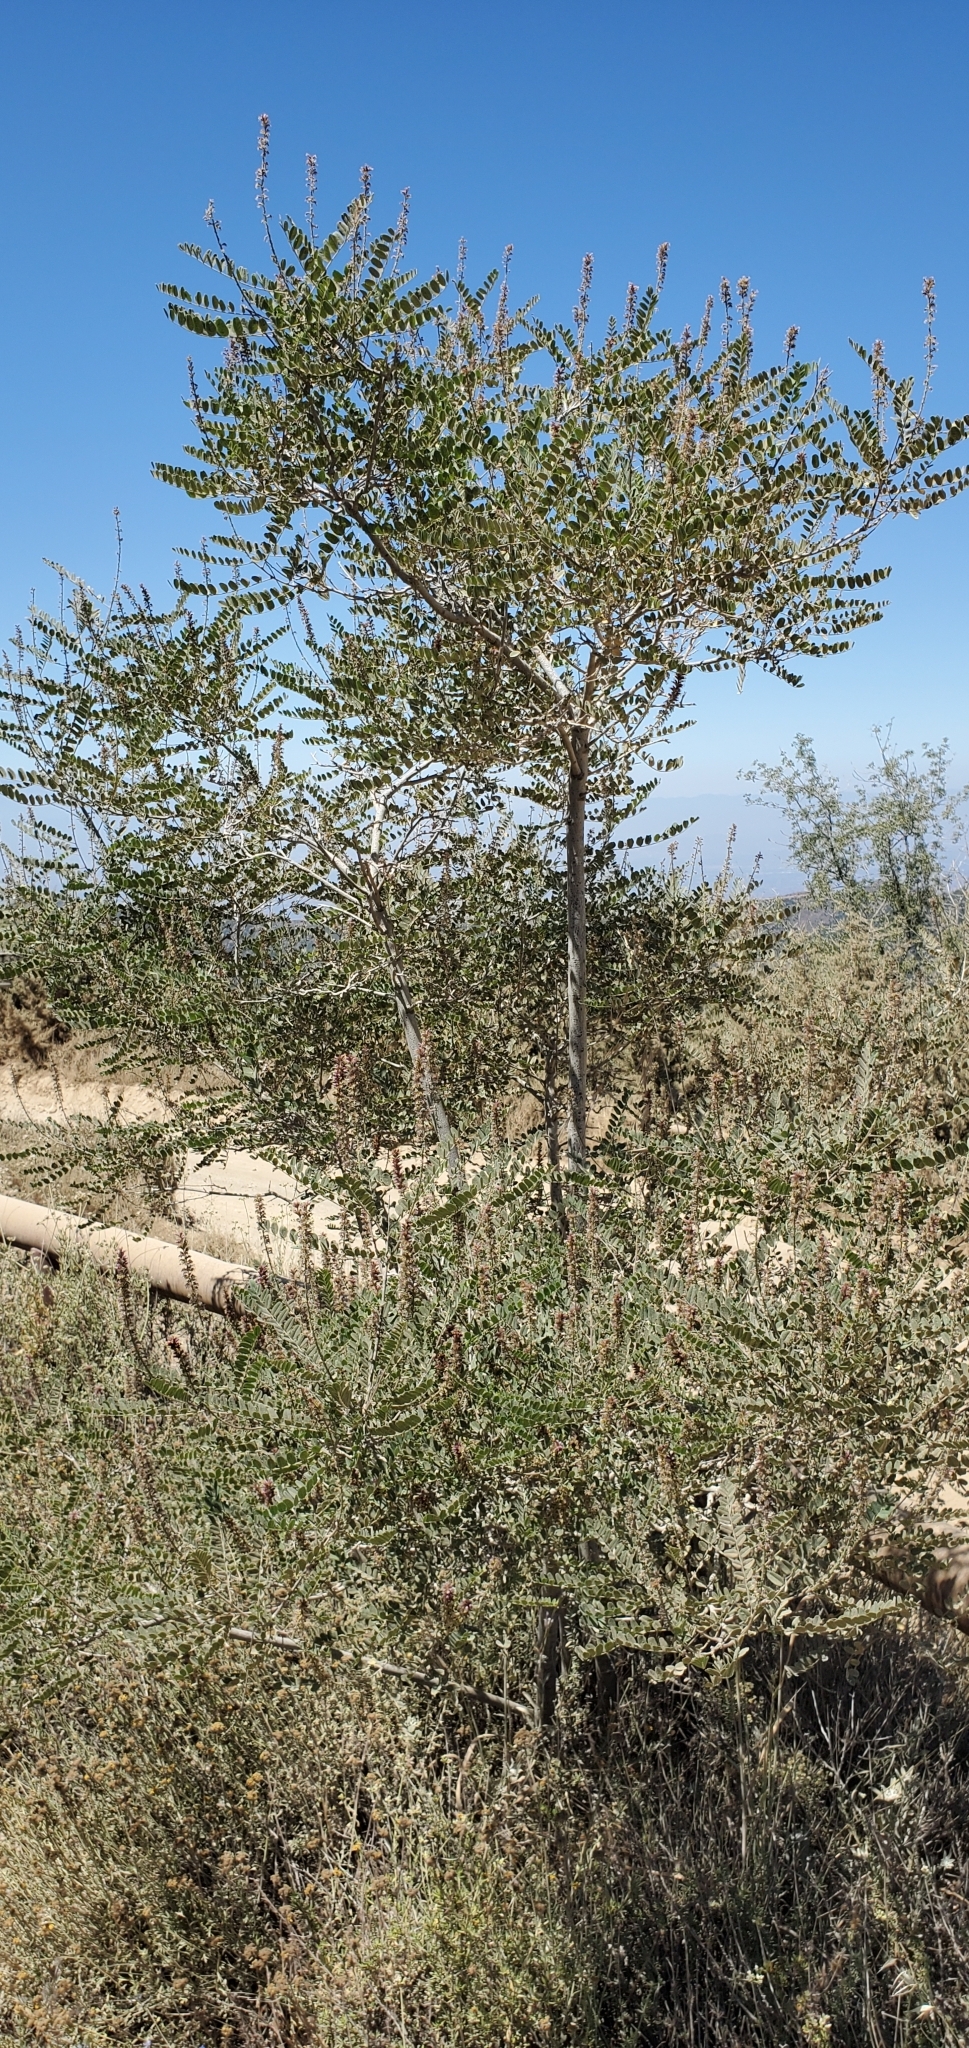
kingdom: Plantae
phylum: Tracheophyta
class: Magnoliopsida
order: Fabales
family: Fabaceae
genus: Amorpha
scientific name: Amorpha californica
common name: California indigobush
